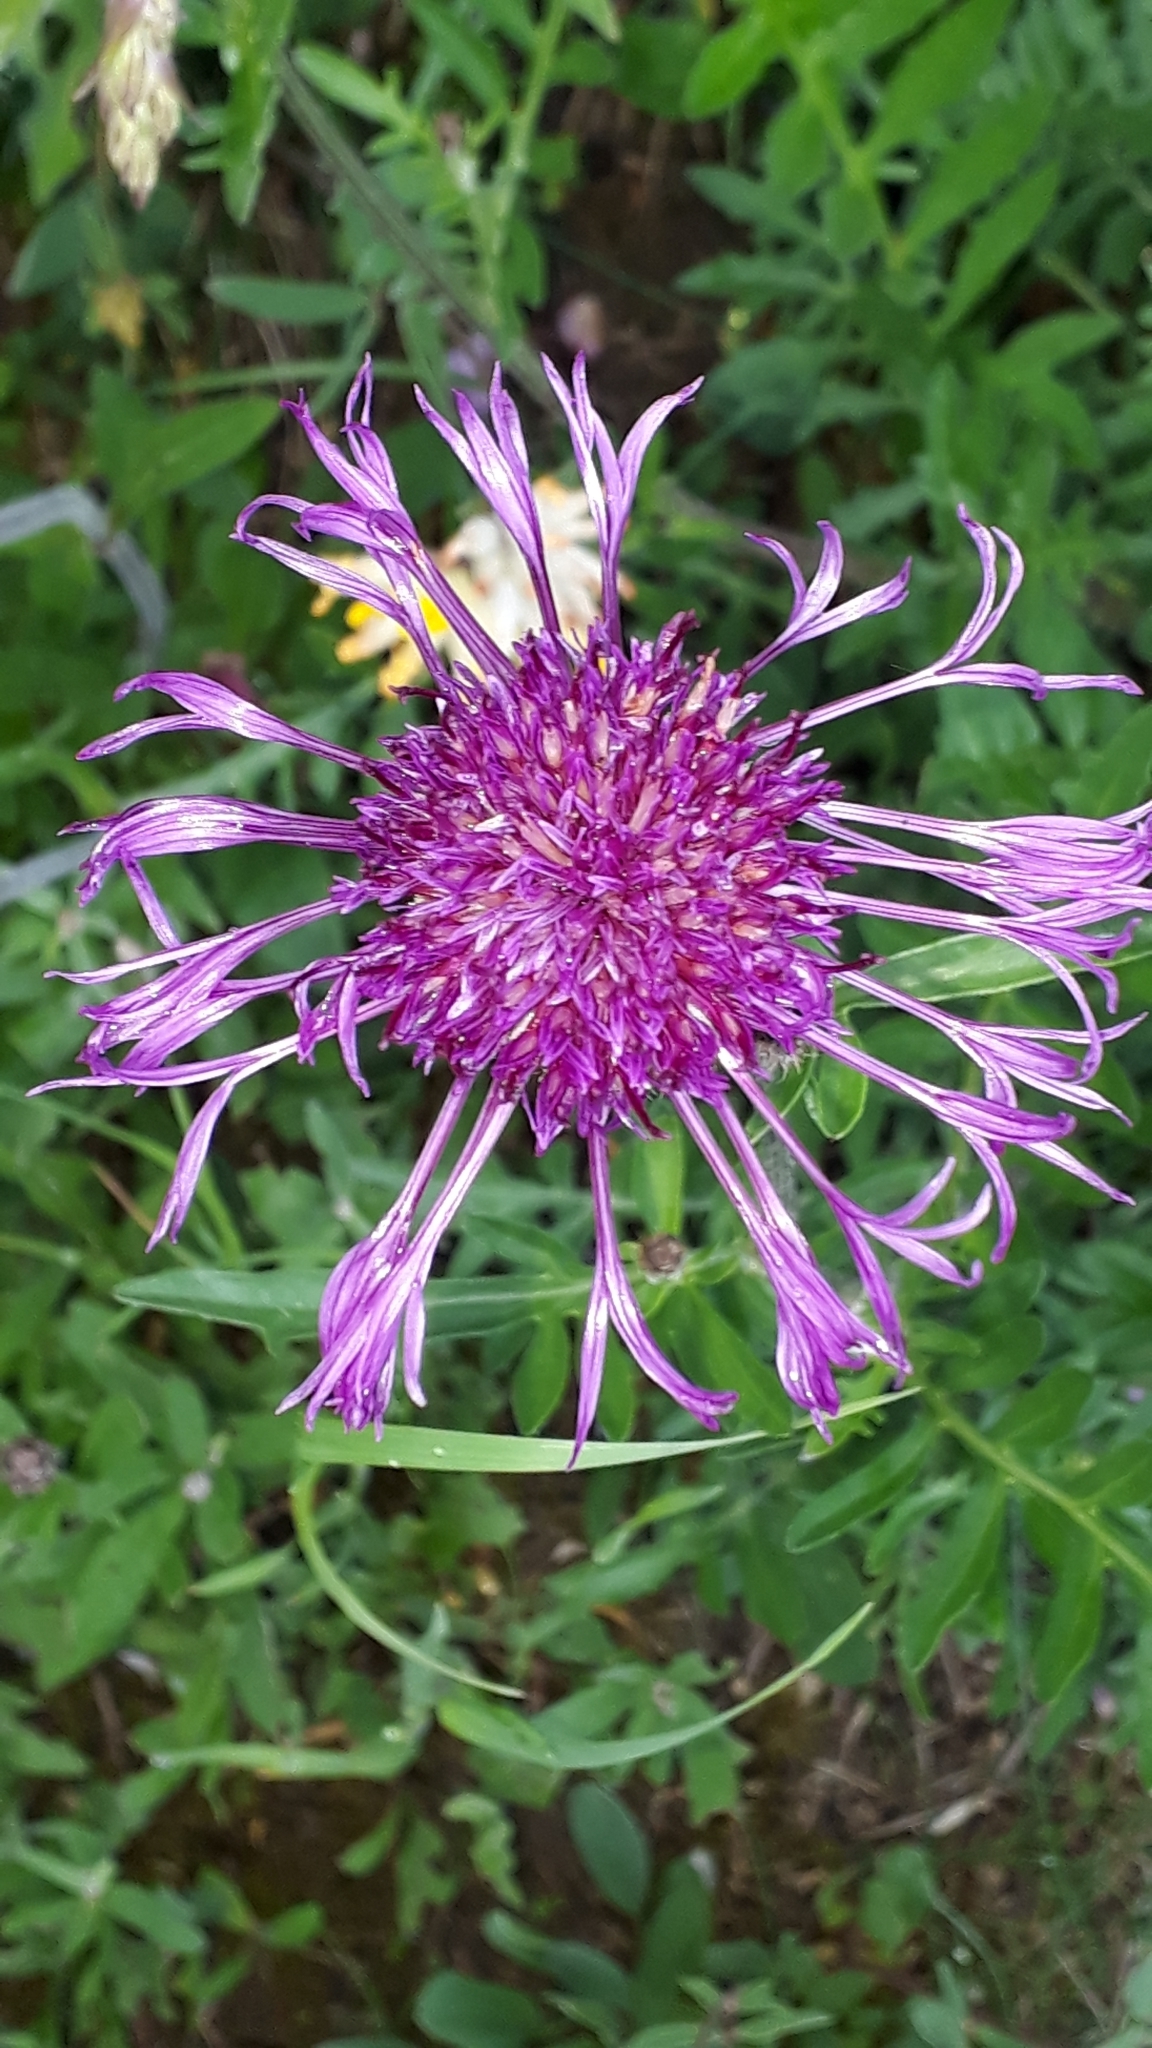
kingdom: Plantae
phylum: Tracheophyta
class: Magnoliopsida
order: Asterales
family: Asteraceae
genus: Centaurea
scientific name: Centaurea scabiosa
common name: Greater knapweed
